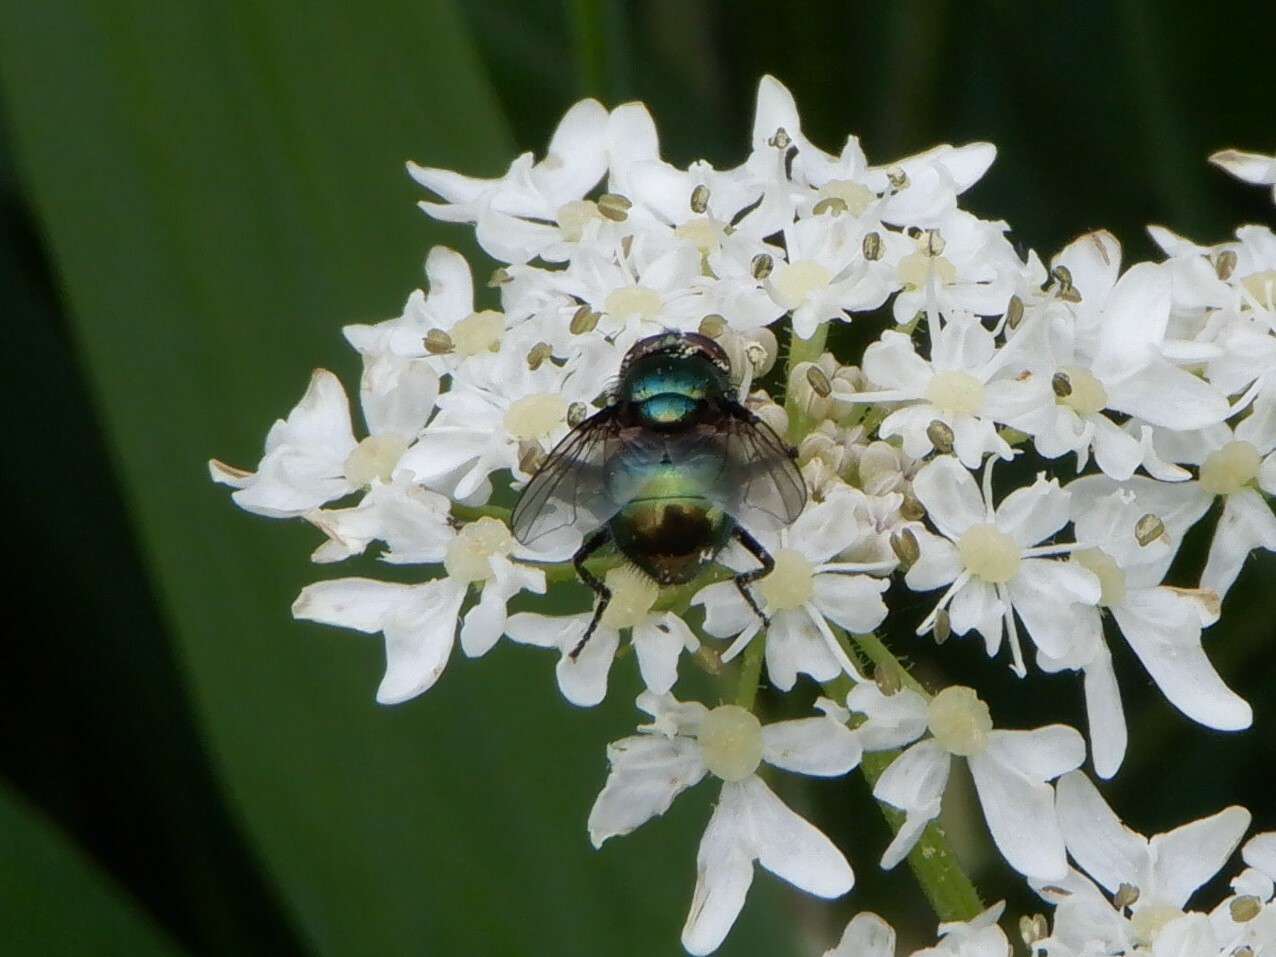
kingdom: Animalia
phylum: Arthropoda
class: Insecta
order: Diptera
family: Muscidae
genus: Neomyia
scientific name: Neomyia cornicina
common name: House fly
